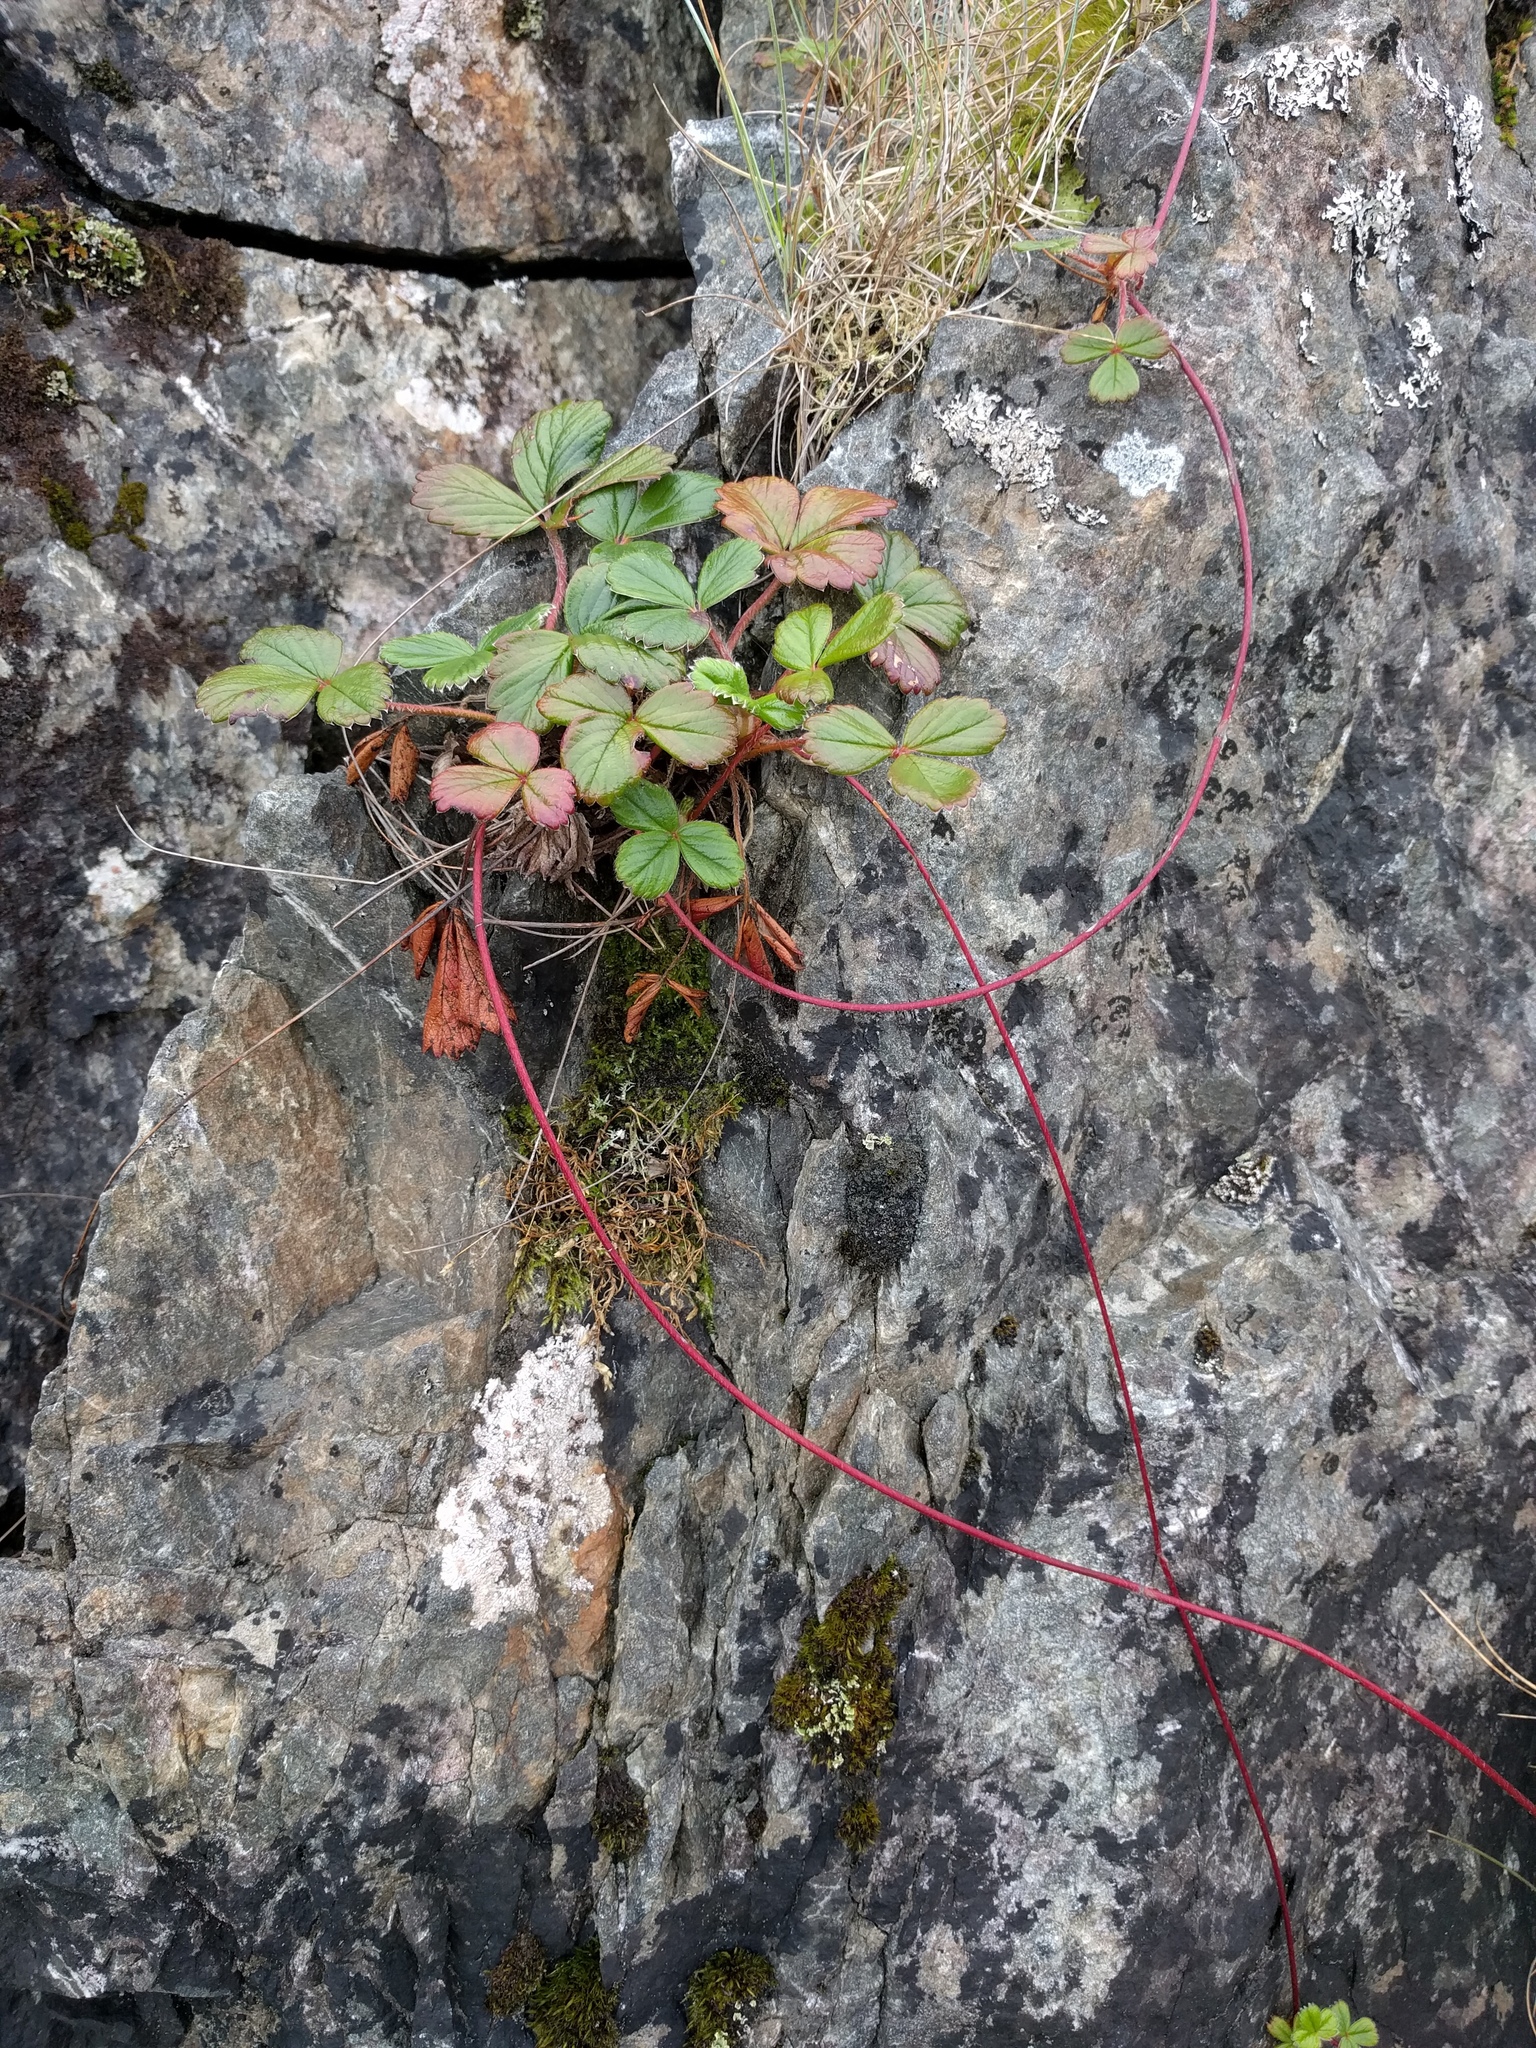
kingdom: Plantae
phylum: Tracheophyta
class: Magnoliopsida
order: Rosales
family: Rosaceae
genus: Fragaria
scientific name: Fragaria chiloensis
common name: Beach strawberry
